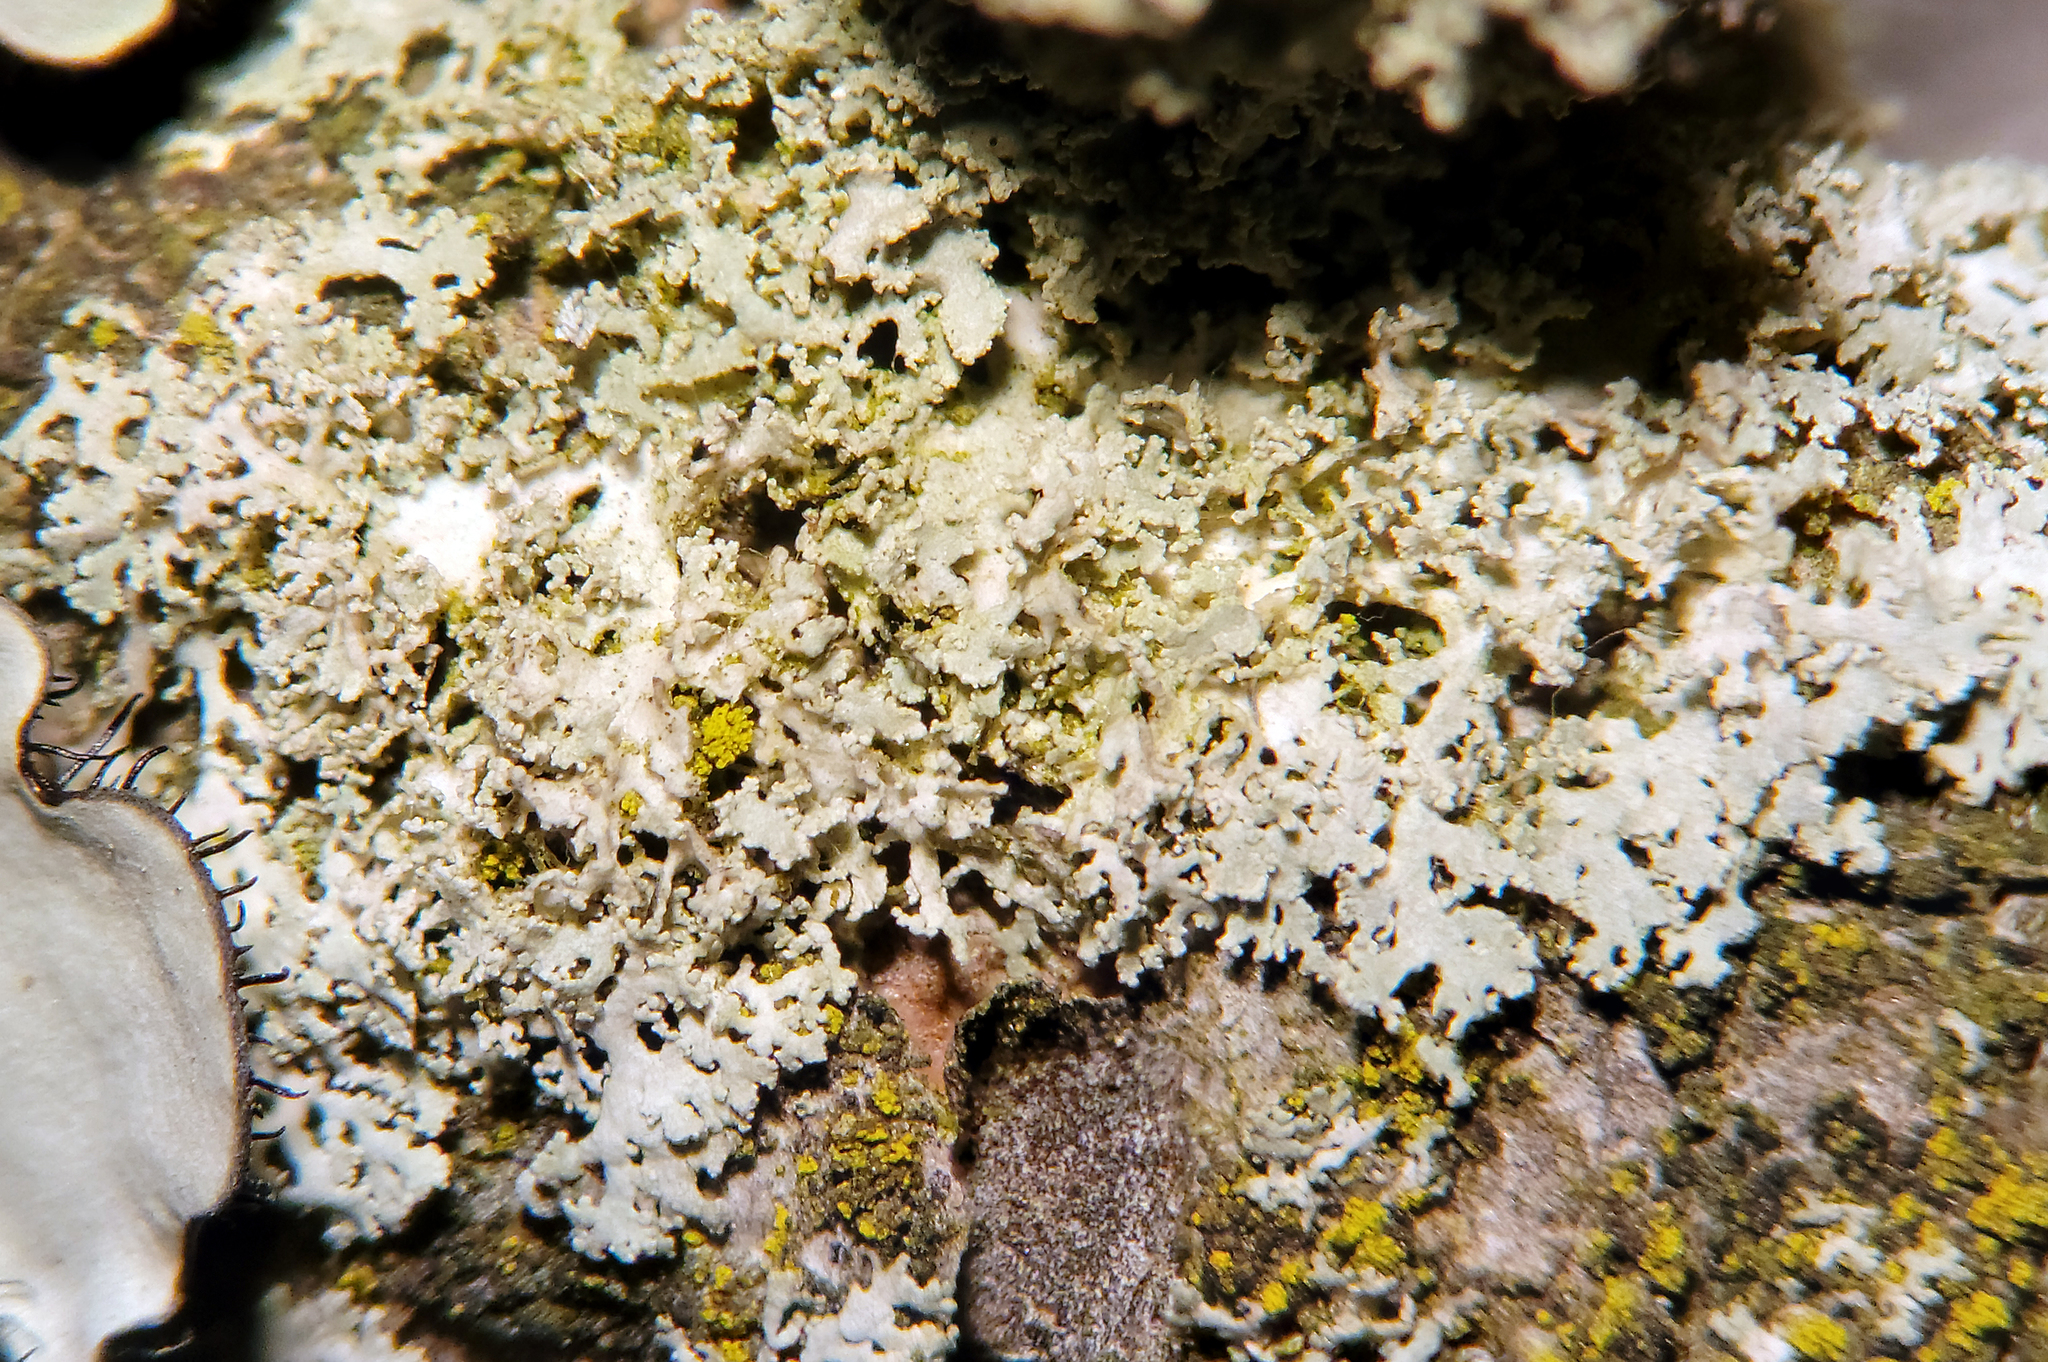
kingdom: Fungi
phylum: Ascomycota
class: Lecanoromycetes
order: Caliciales
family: Physciaceae
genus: Physcia
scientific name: Physcia millegrana
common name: Rosette lichen
